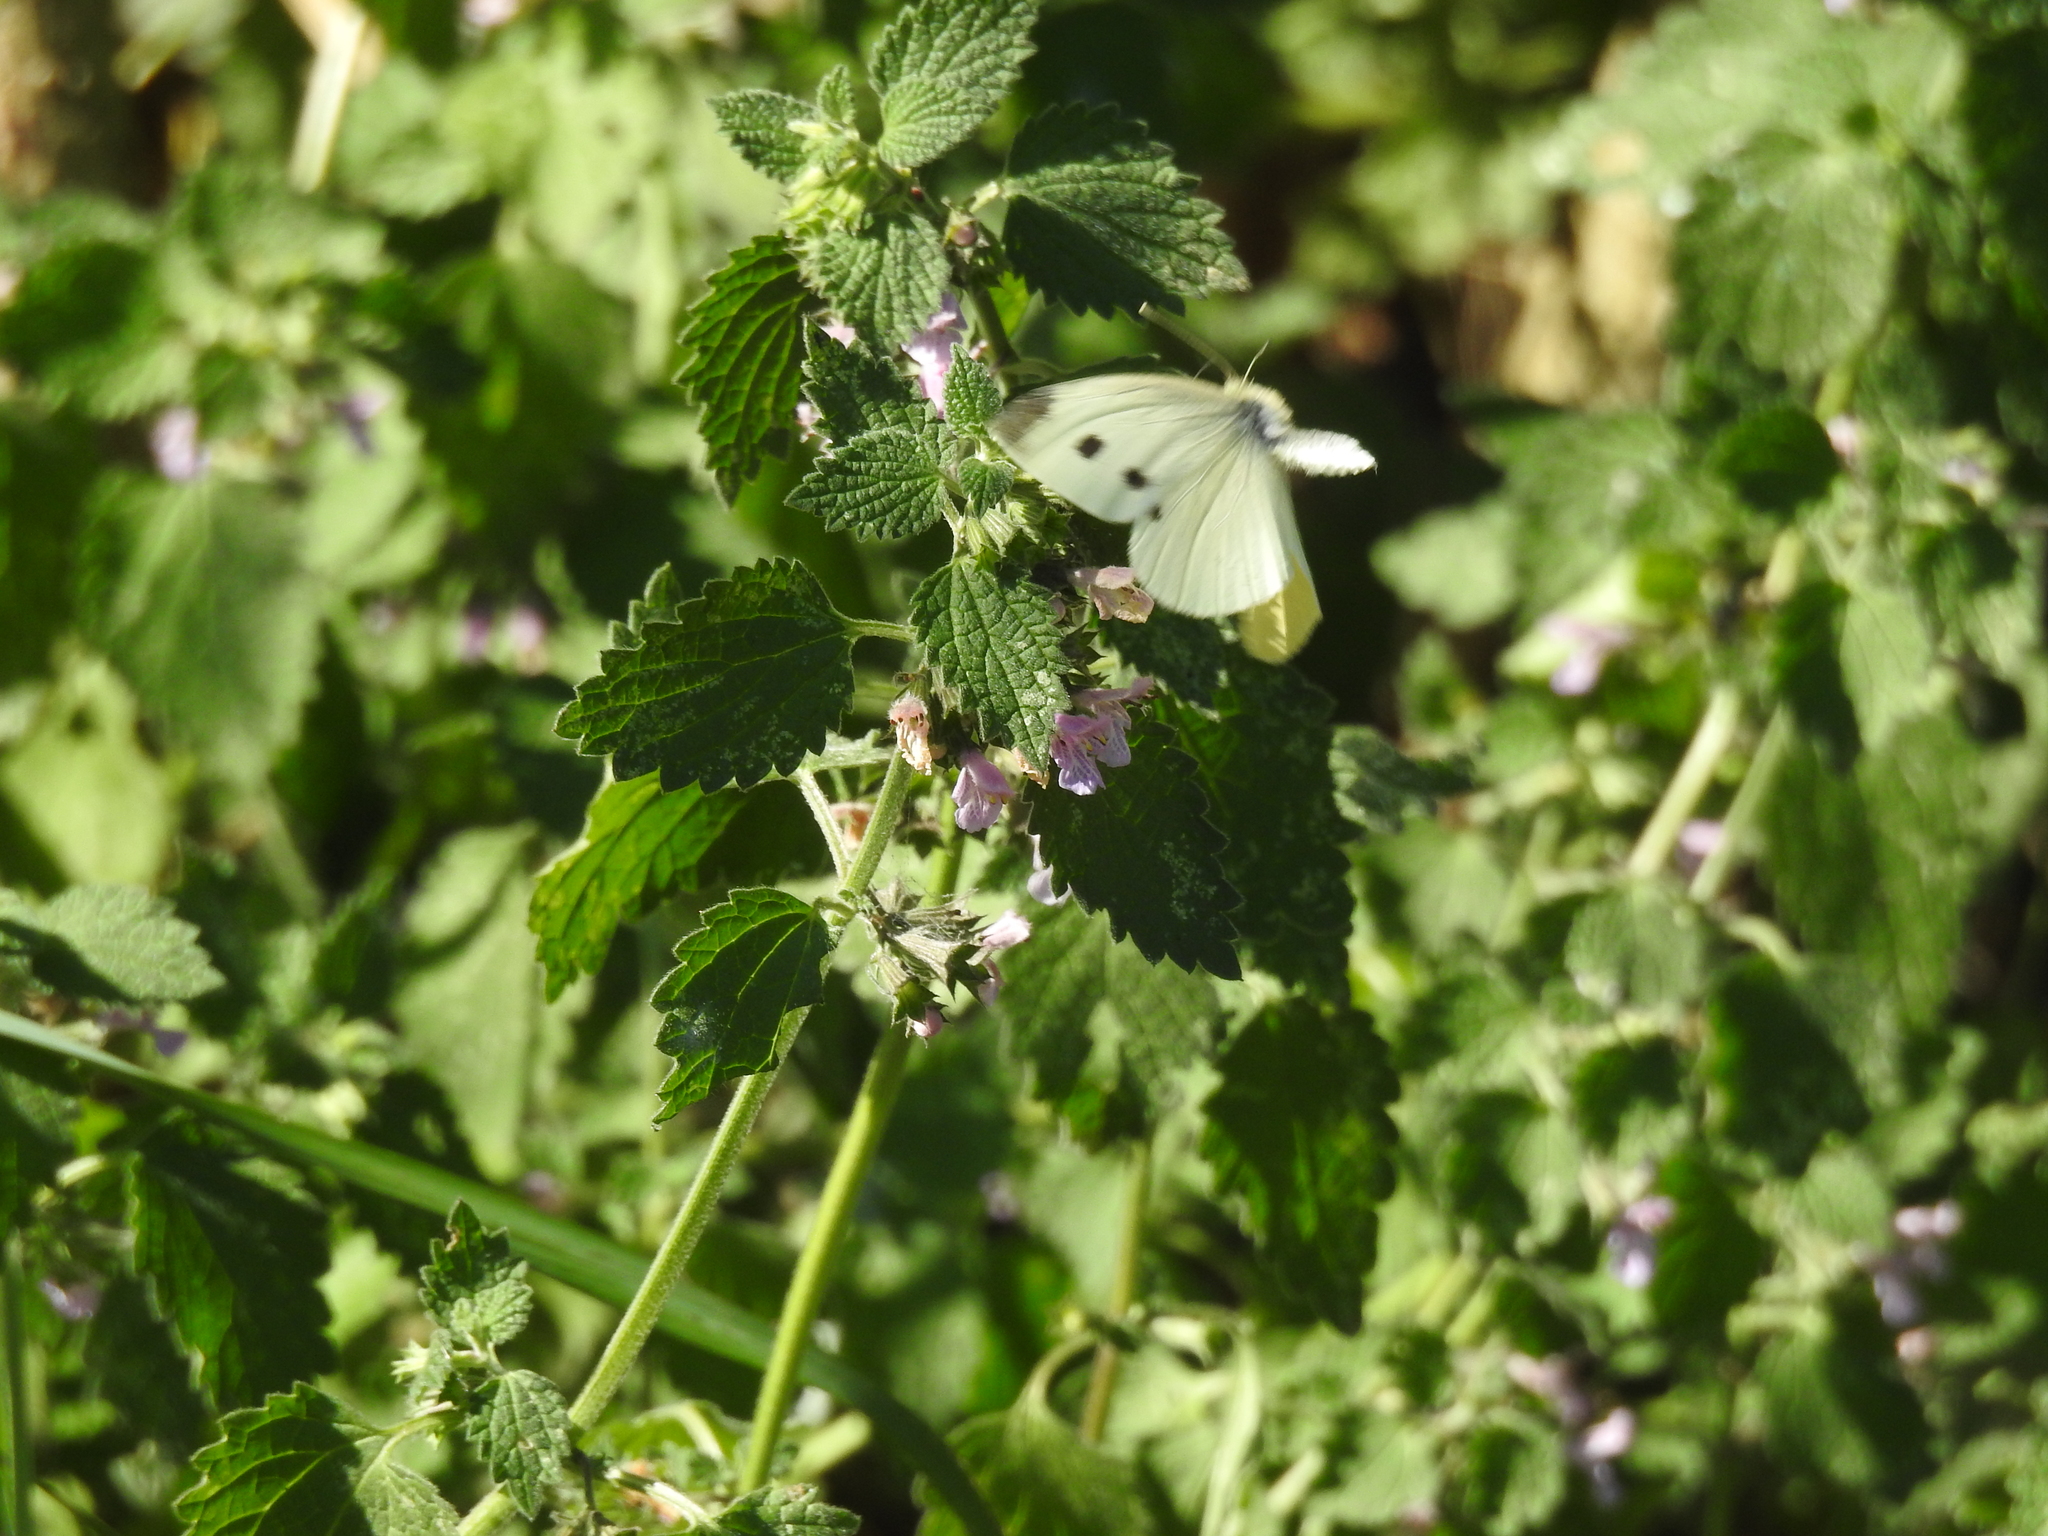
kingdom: Animalia
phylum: Arthropoda
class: Insecta
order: Lepidoptera
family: Pieridae
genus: Pieris
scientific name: Pieris rapae
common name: Small white
